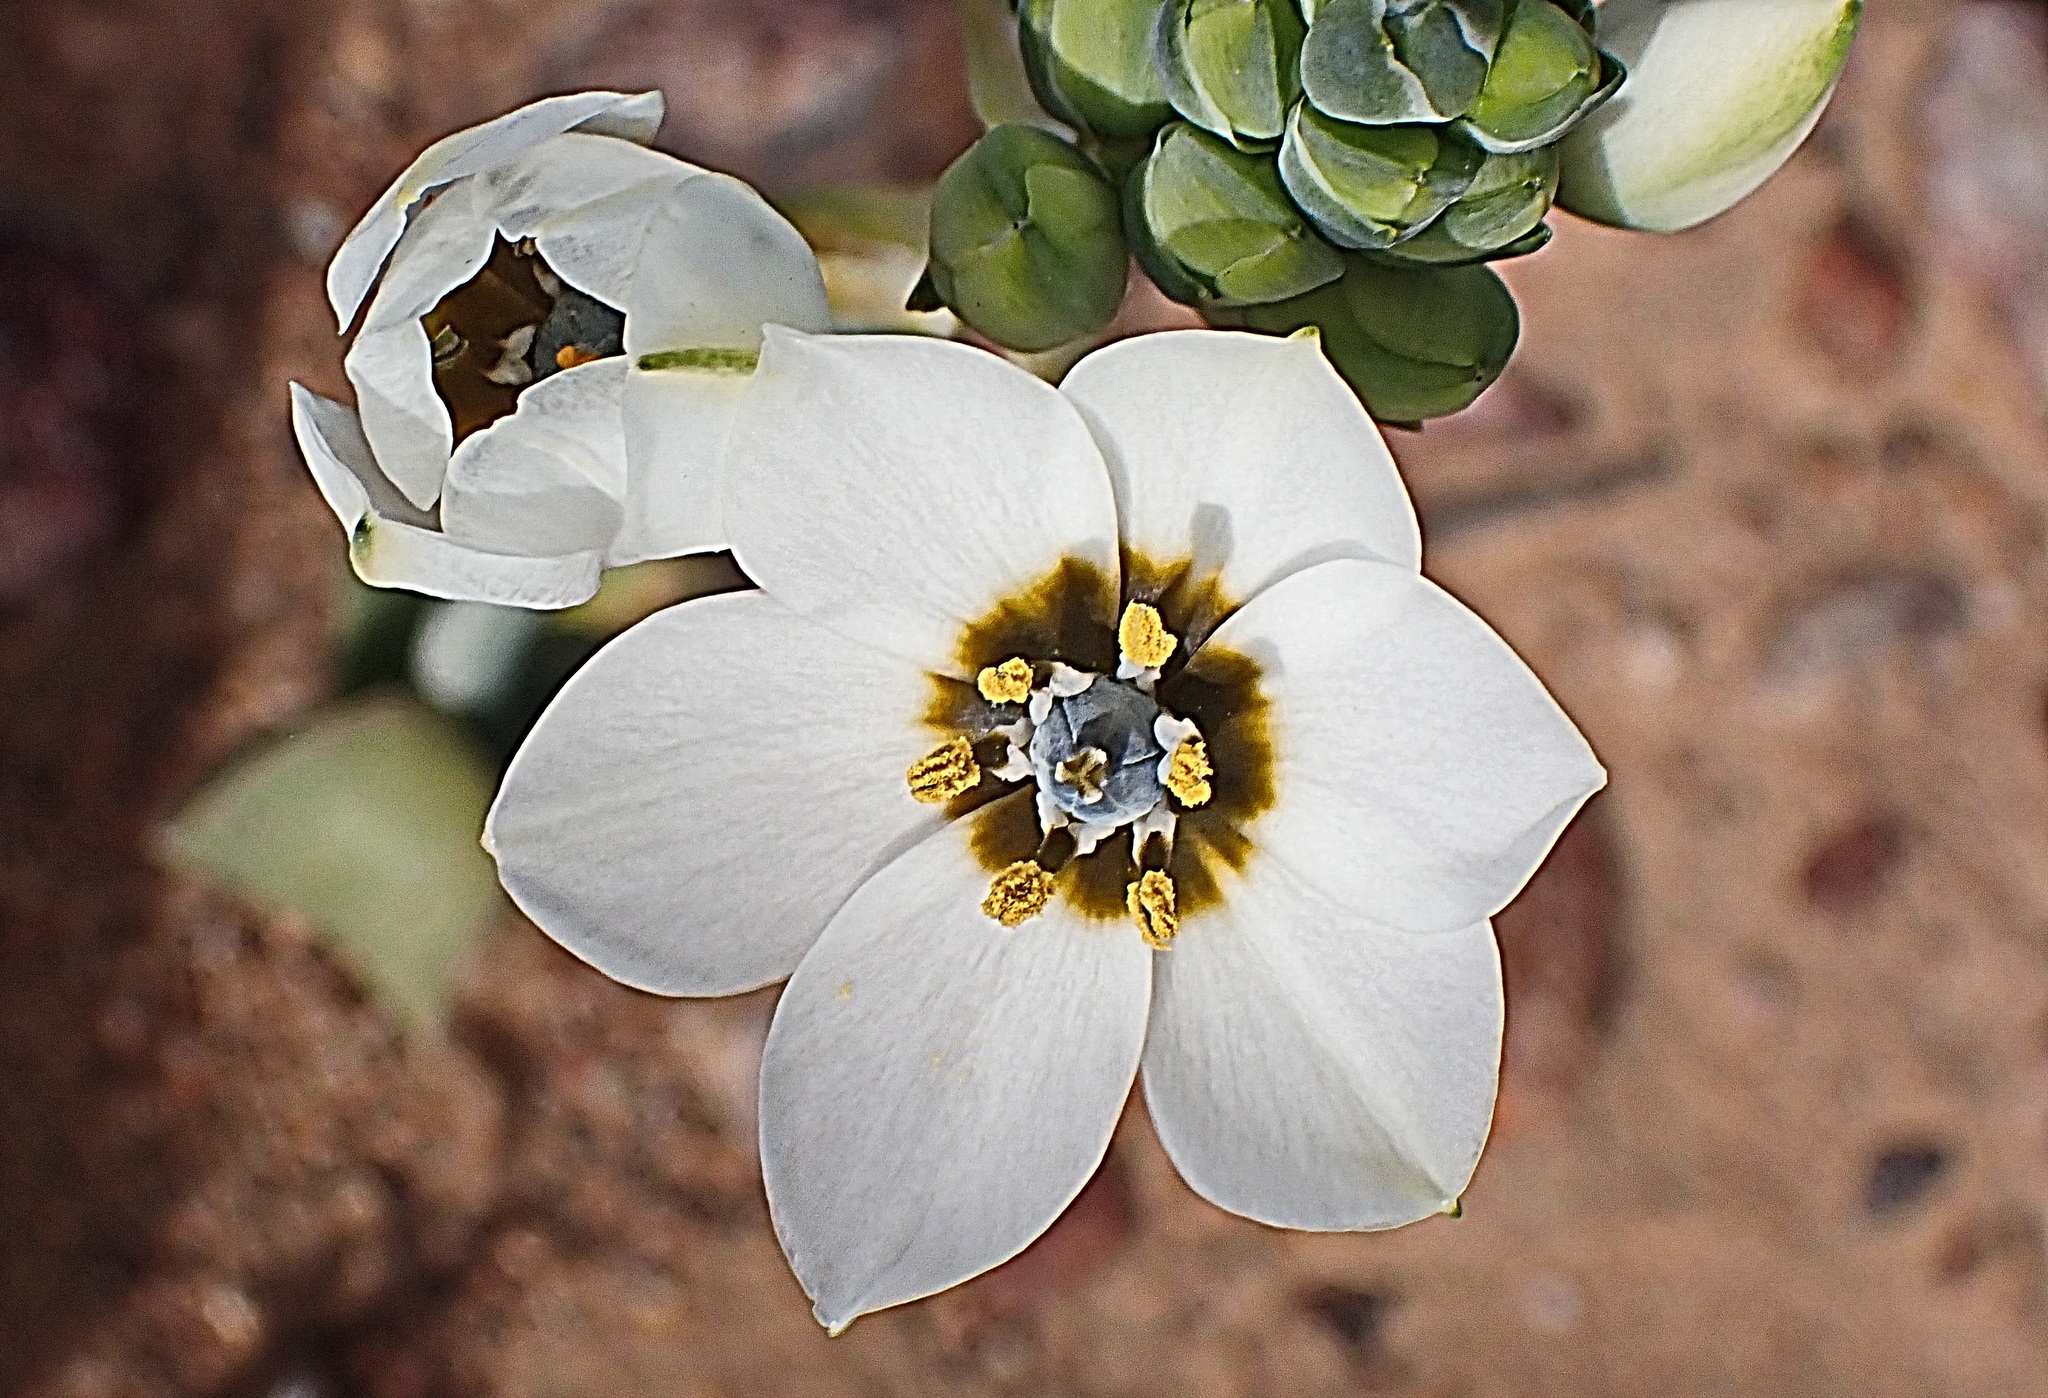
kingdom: Plantae
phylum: Tracheophyta
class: Liliopsida
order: Asparagales
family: Asparagaceae
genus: Ornithogalum
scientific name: Ornithogalum dubium
